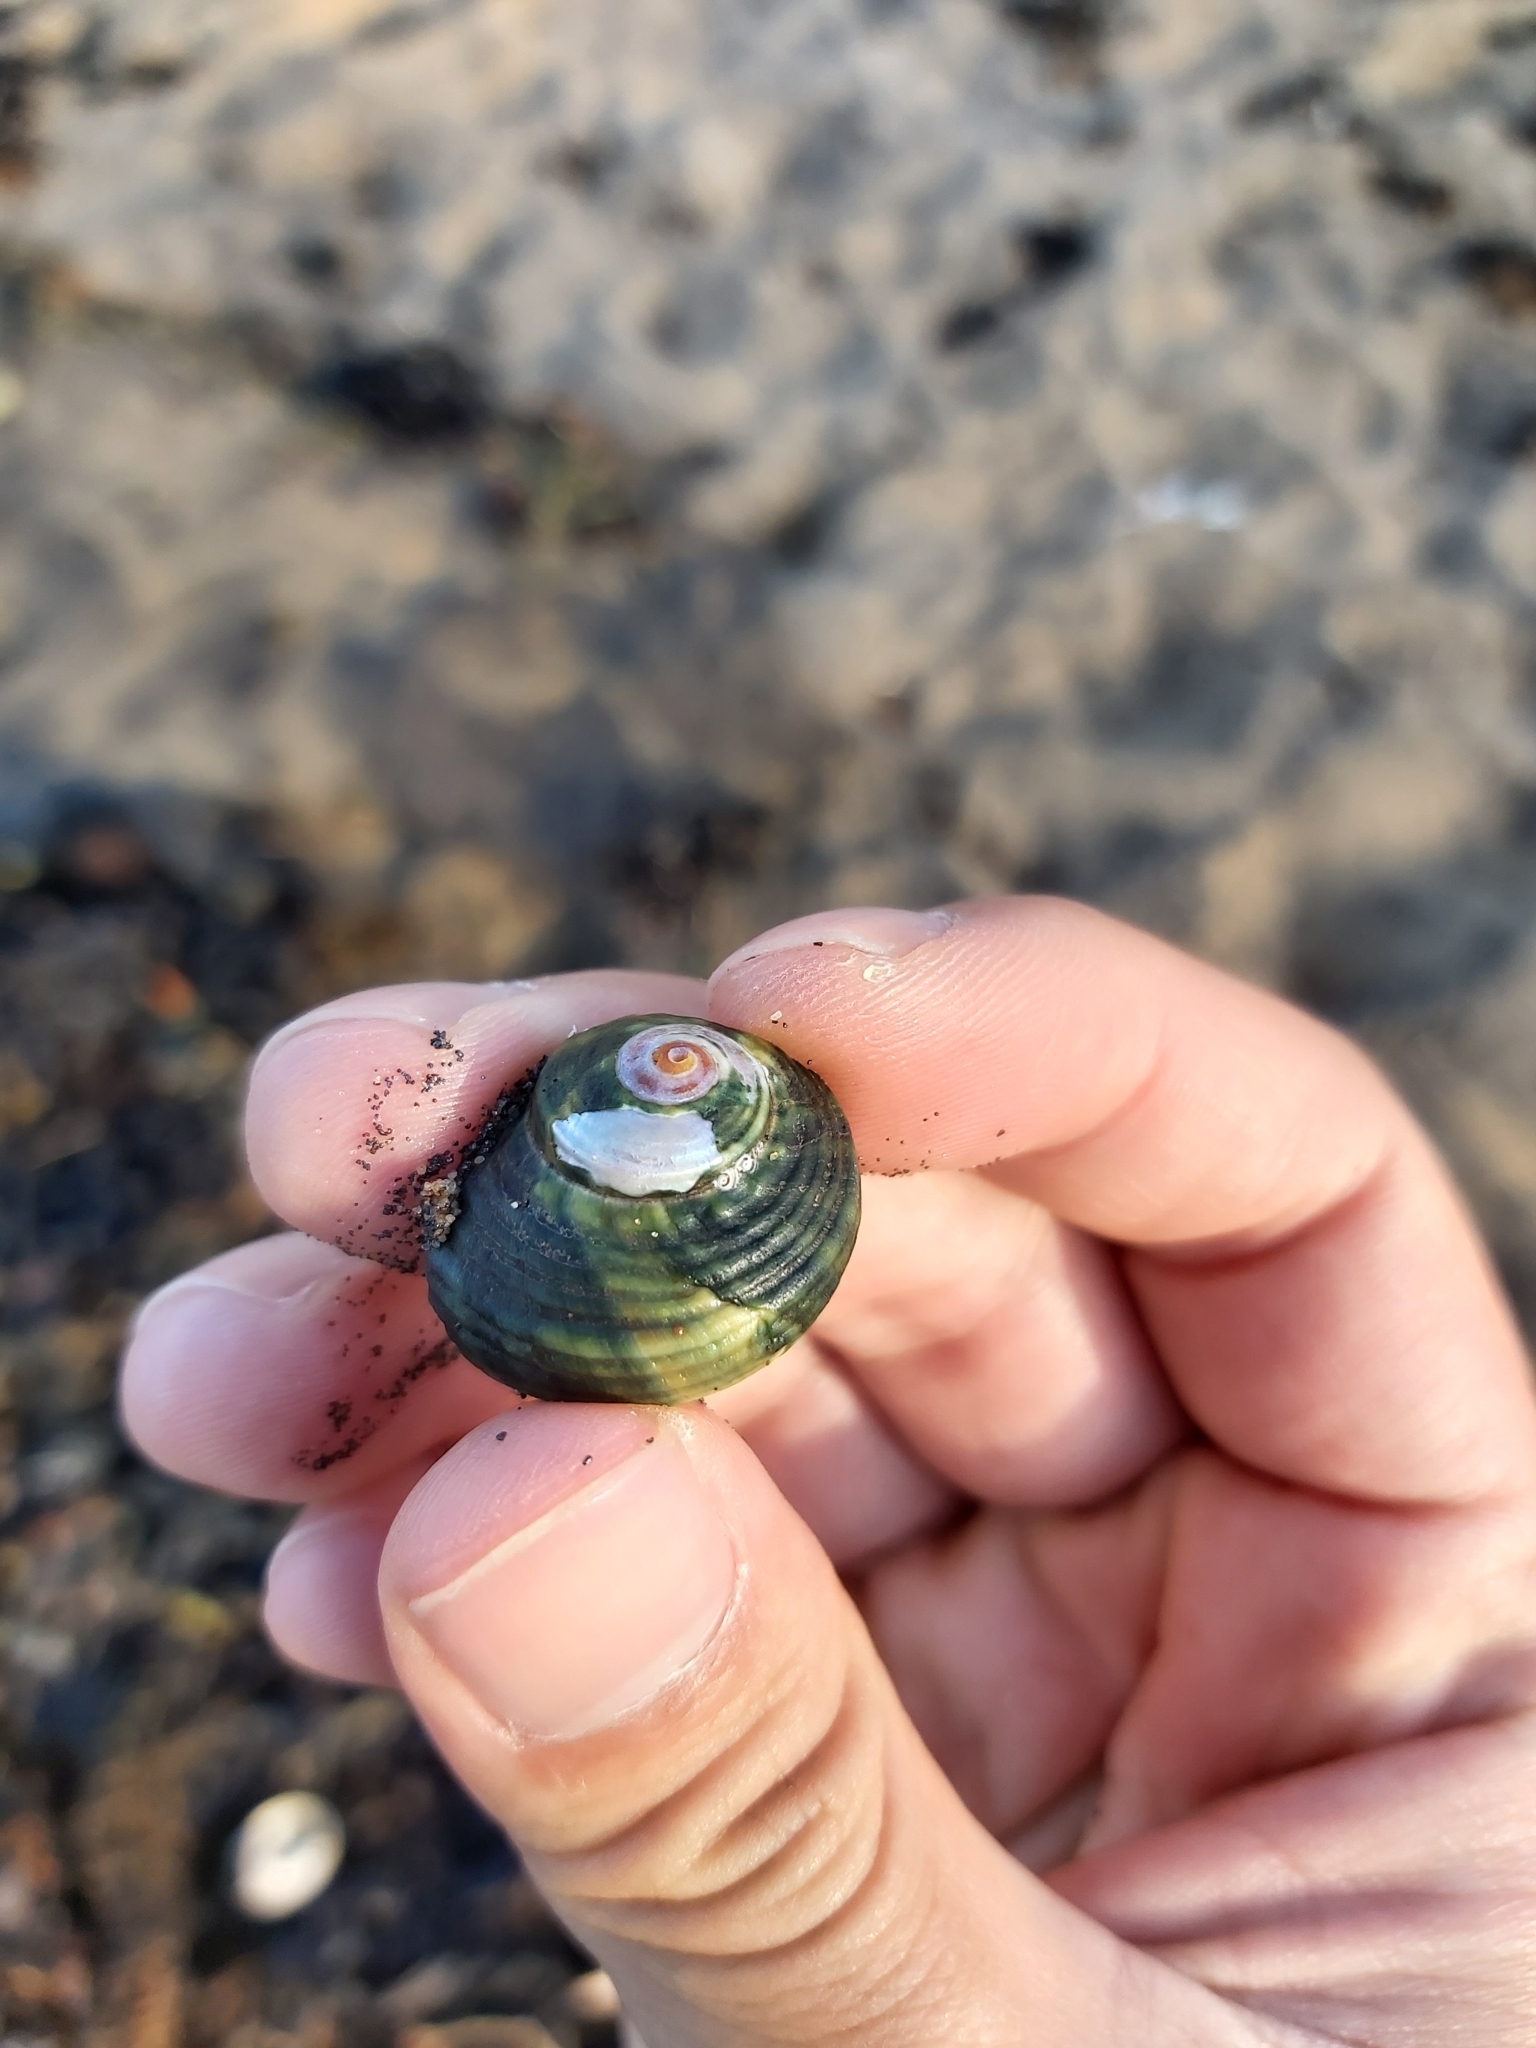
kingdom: Animalia
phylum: Mollusca
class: Gastropoda
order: Trochida
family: Turbinidae
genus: Lunella
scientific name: Lunella undulata
